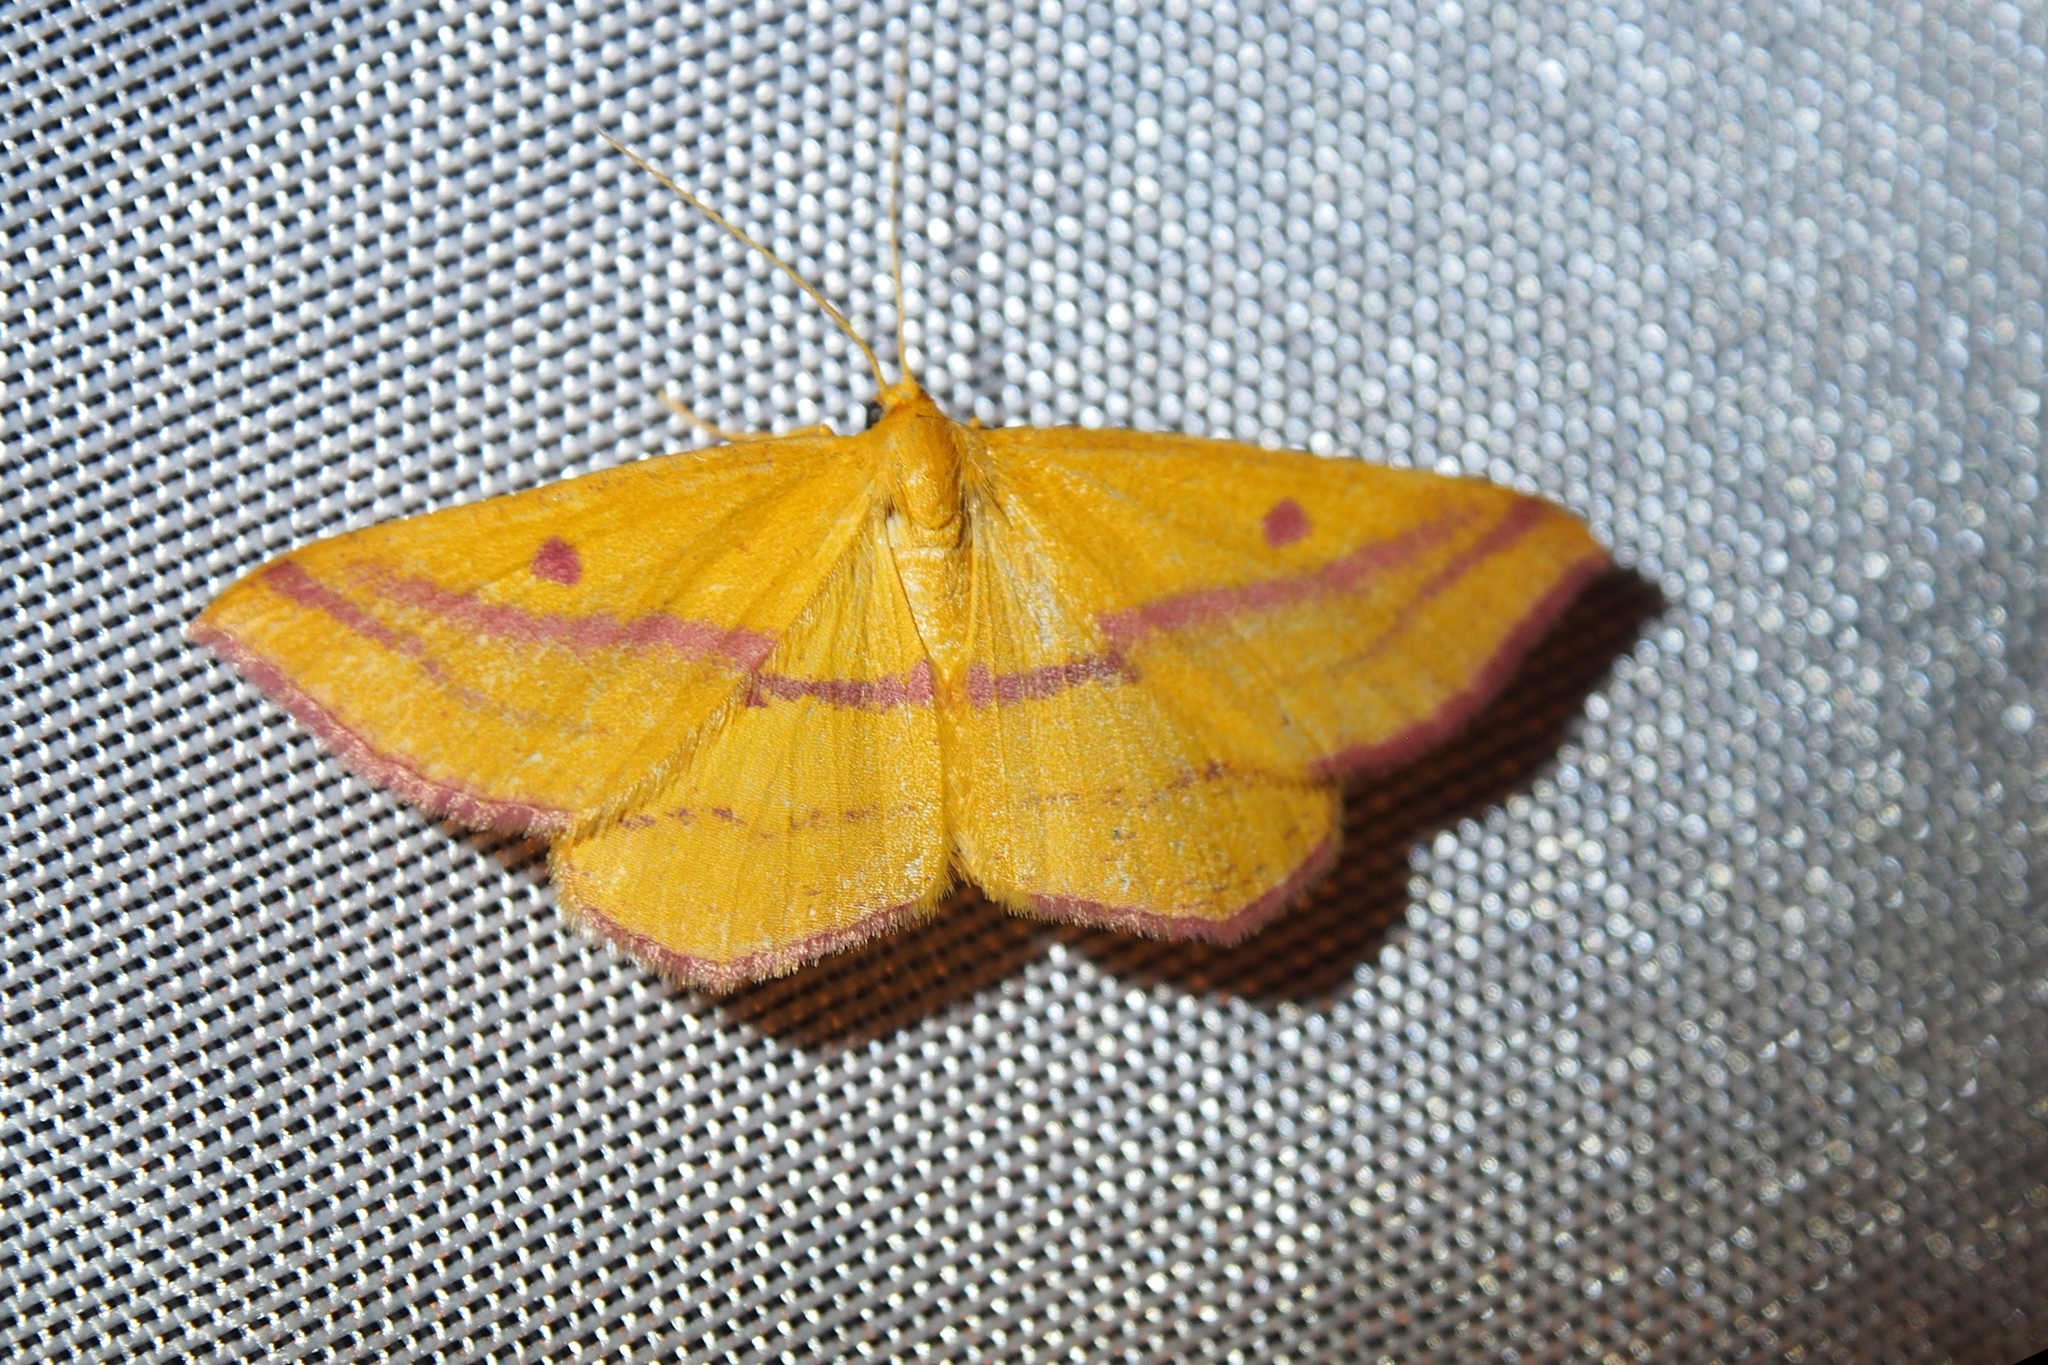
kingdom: Animalia
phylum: Arthropoda
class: Insecta
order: Lepidoptera
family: Geometridae
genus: Haematopis
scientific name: Haematopis grataria
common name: Chickweed geometer
